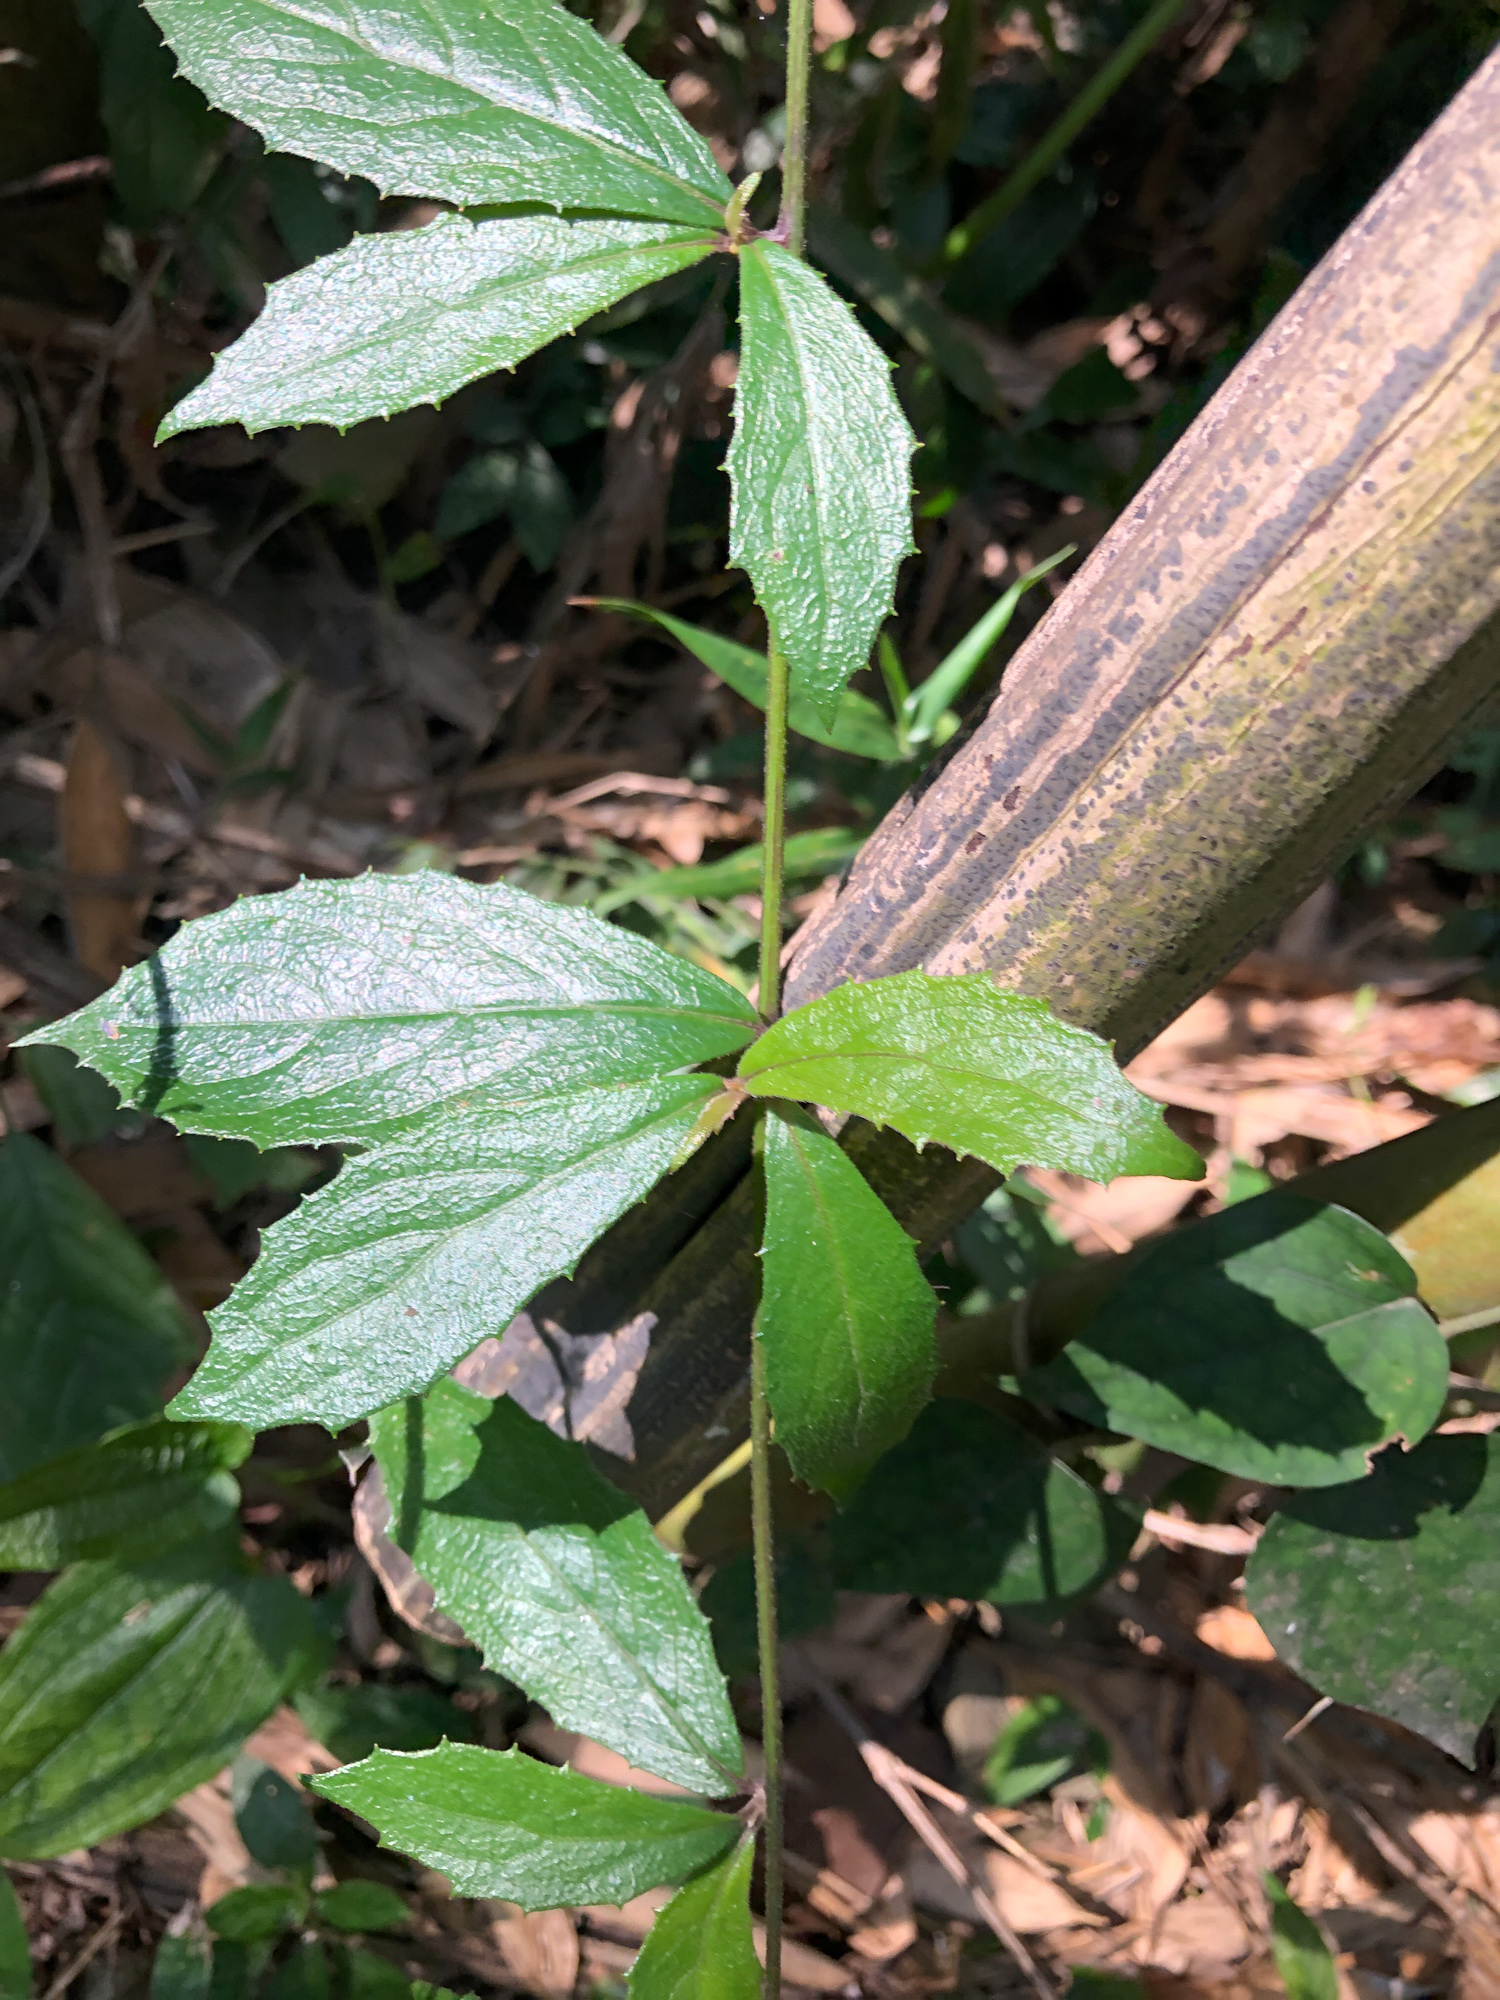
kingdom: Plantae
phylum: Tracheophyta
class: Magnoliopsida
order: Asterales
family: Asteraceae
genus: Blumea
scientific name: Blumea megacephala
